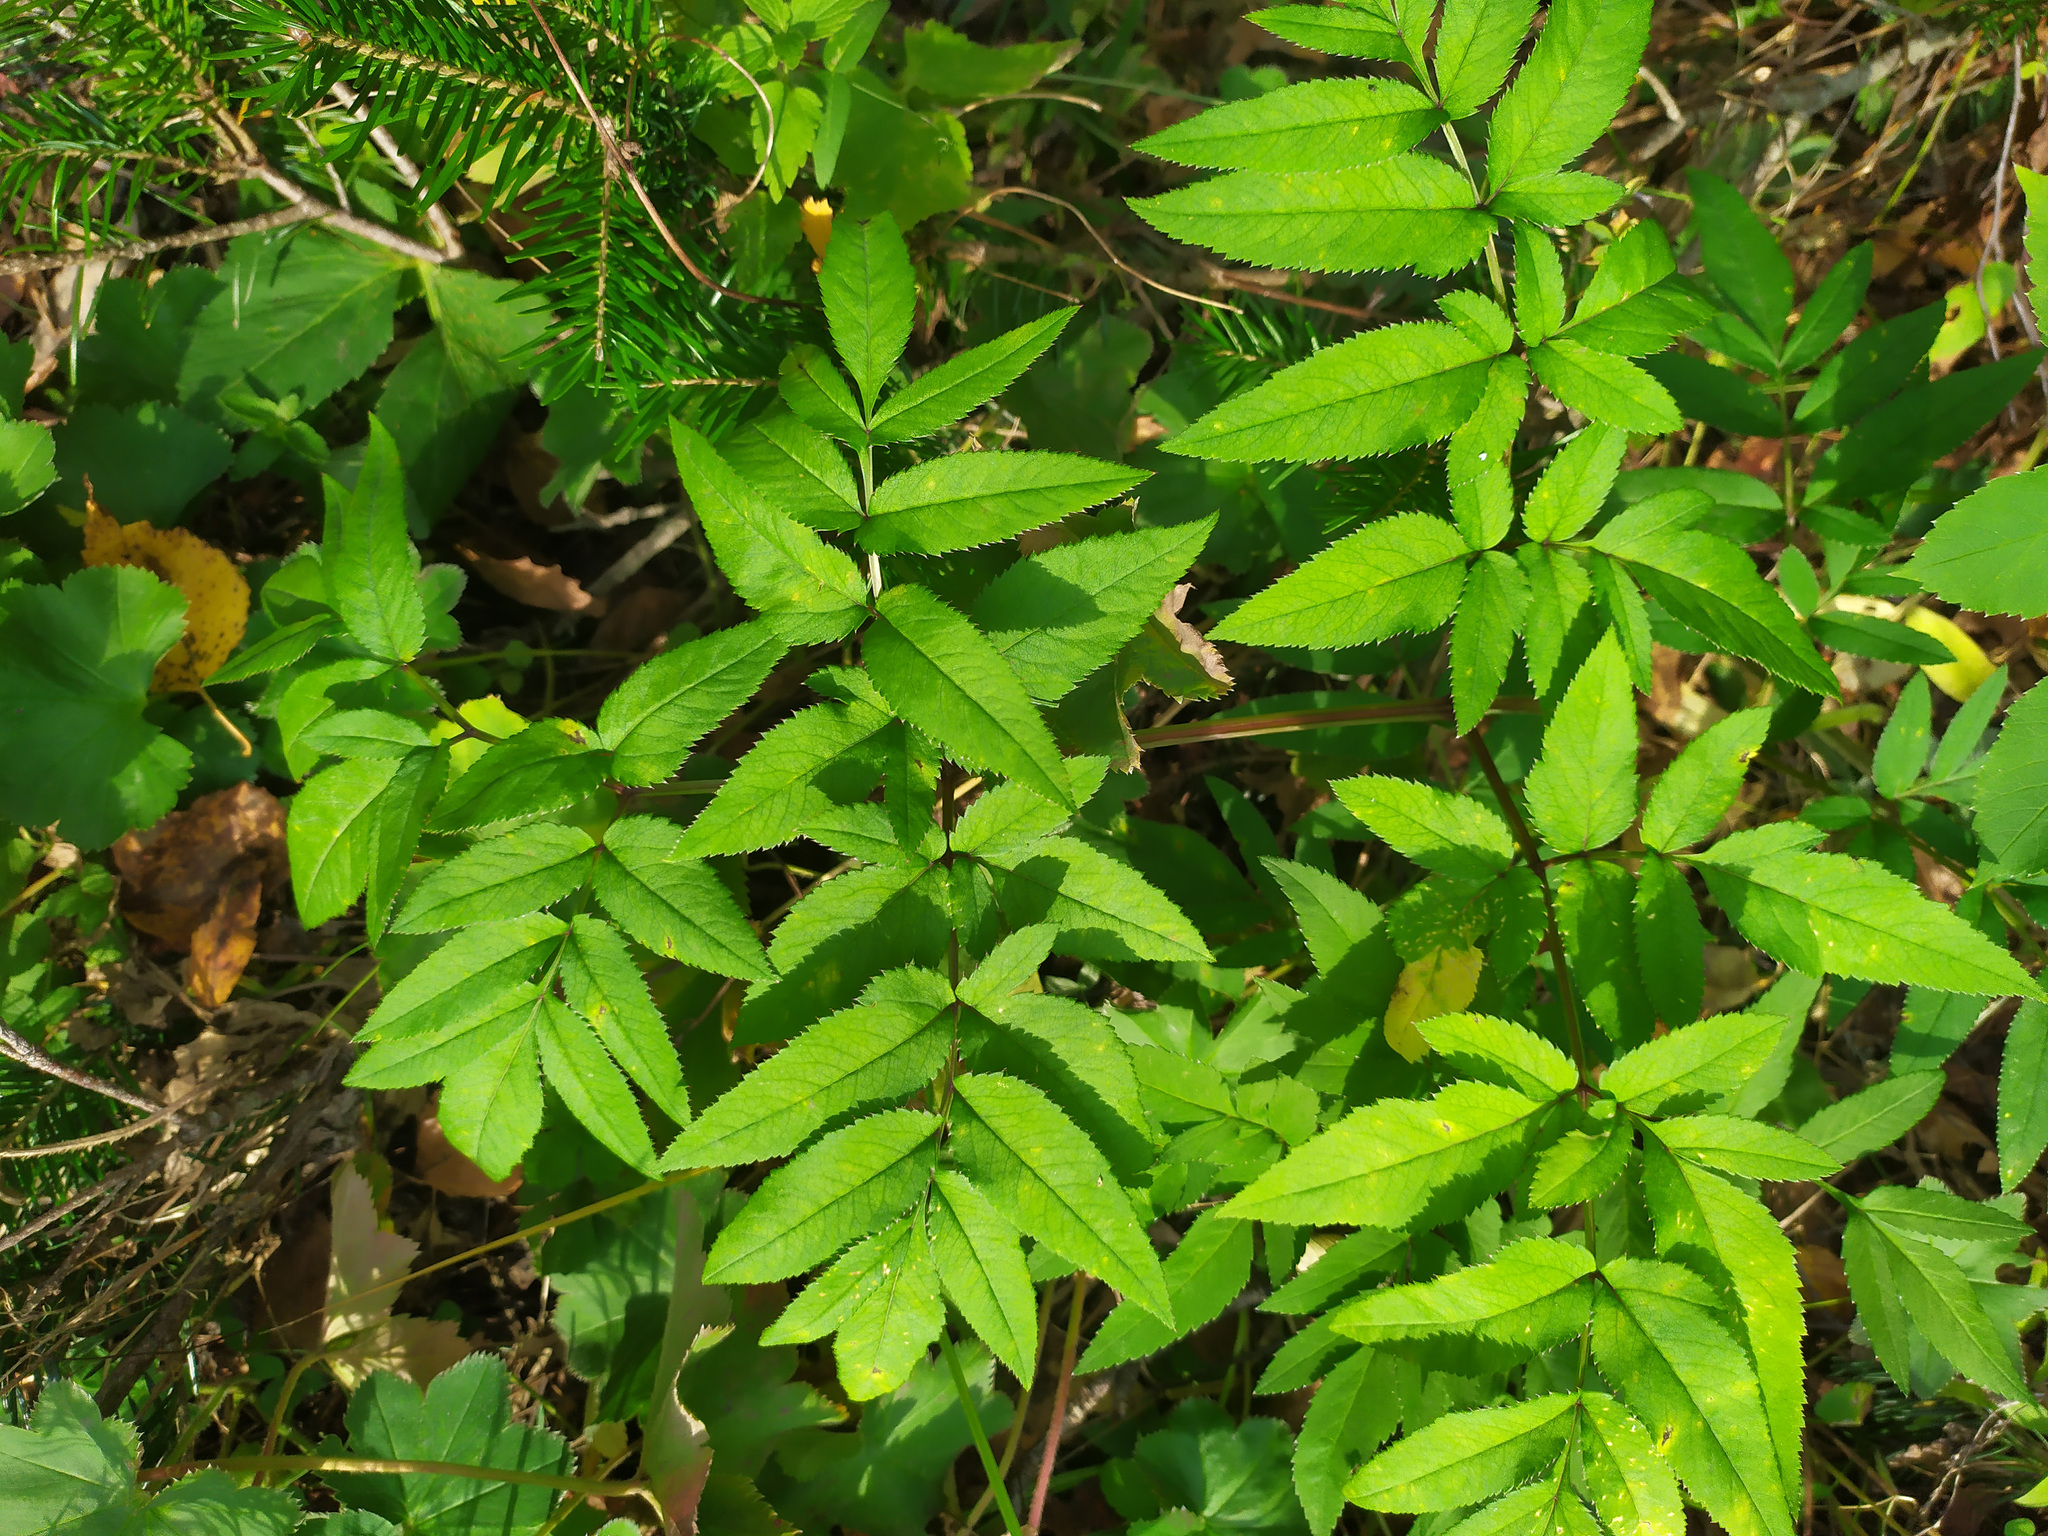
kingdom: Plantae
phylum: Tracheophyta
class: Magnoliopsida
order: Apiales
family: Apiaceae
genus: Angelica
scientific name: Angelica sylvestris
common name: Wild angelica
